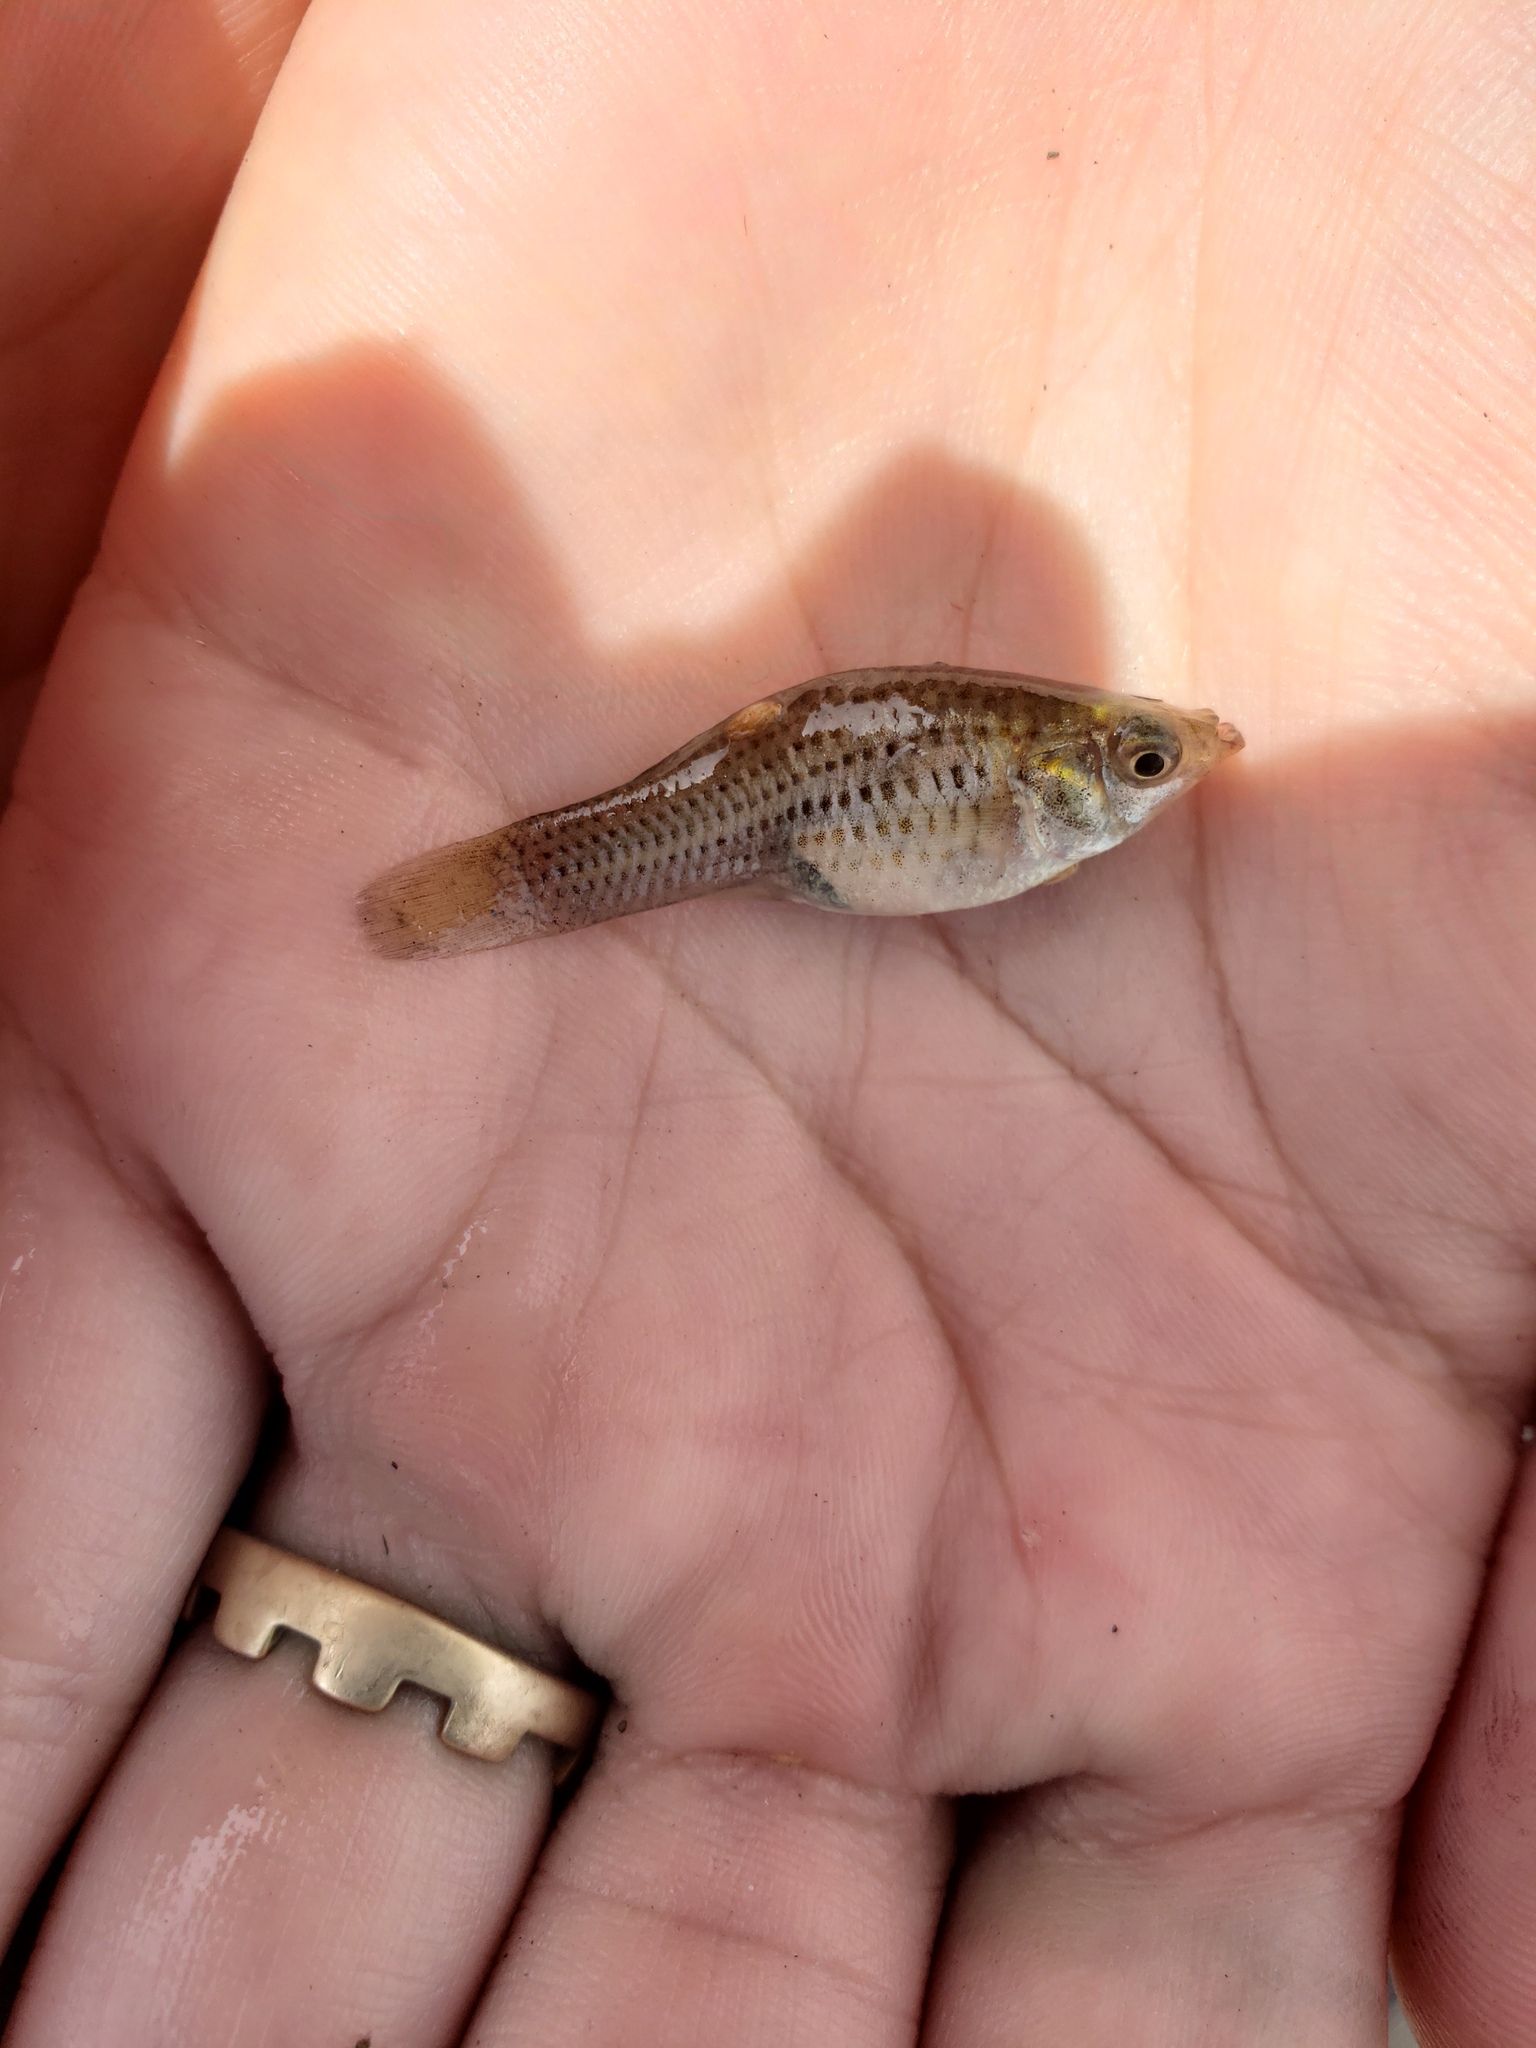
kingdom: Animalia
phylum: Chordata
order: Cyprinodontiformes
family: Poeciliidae
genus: Poecilia
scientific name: Poecilia latipinna
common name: Sailfin molly
